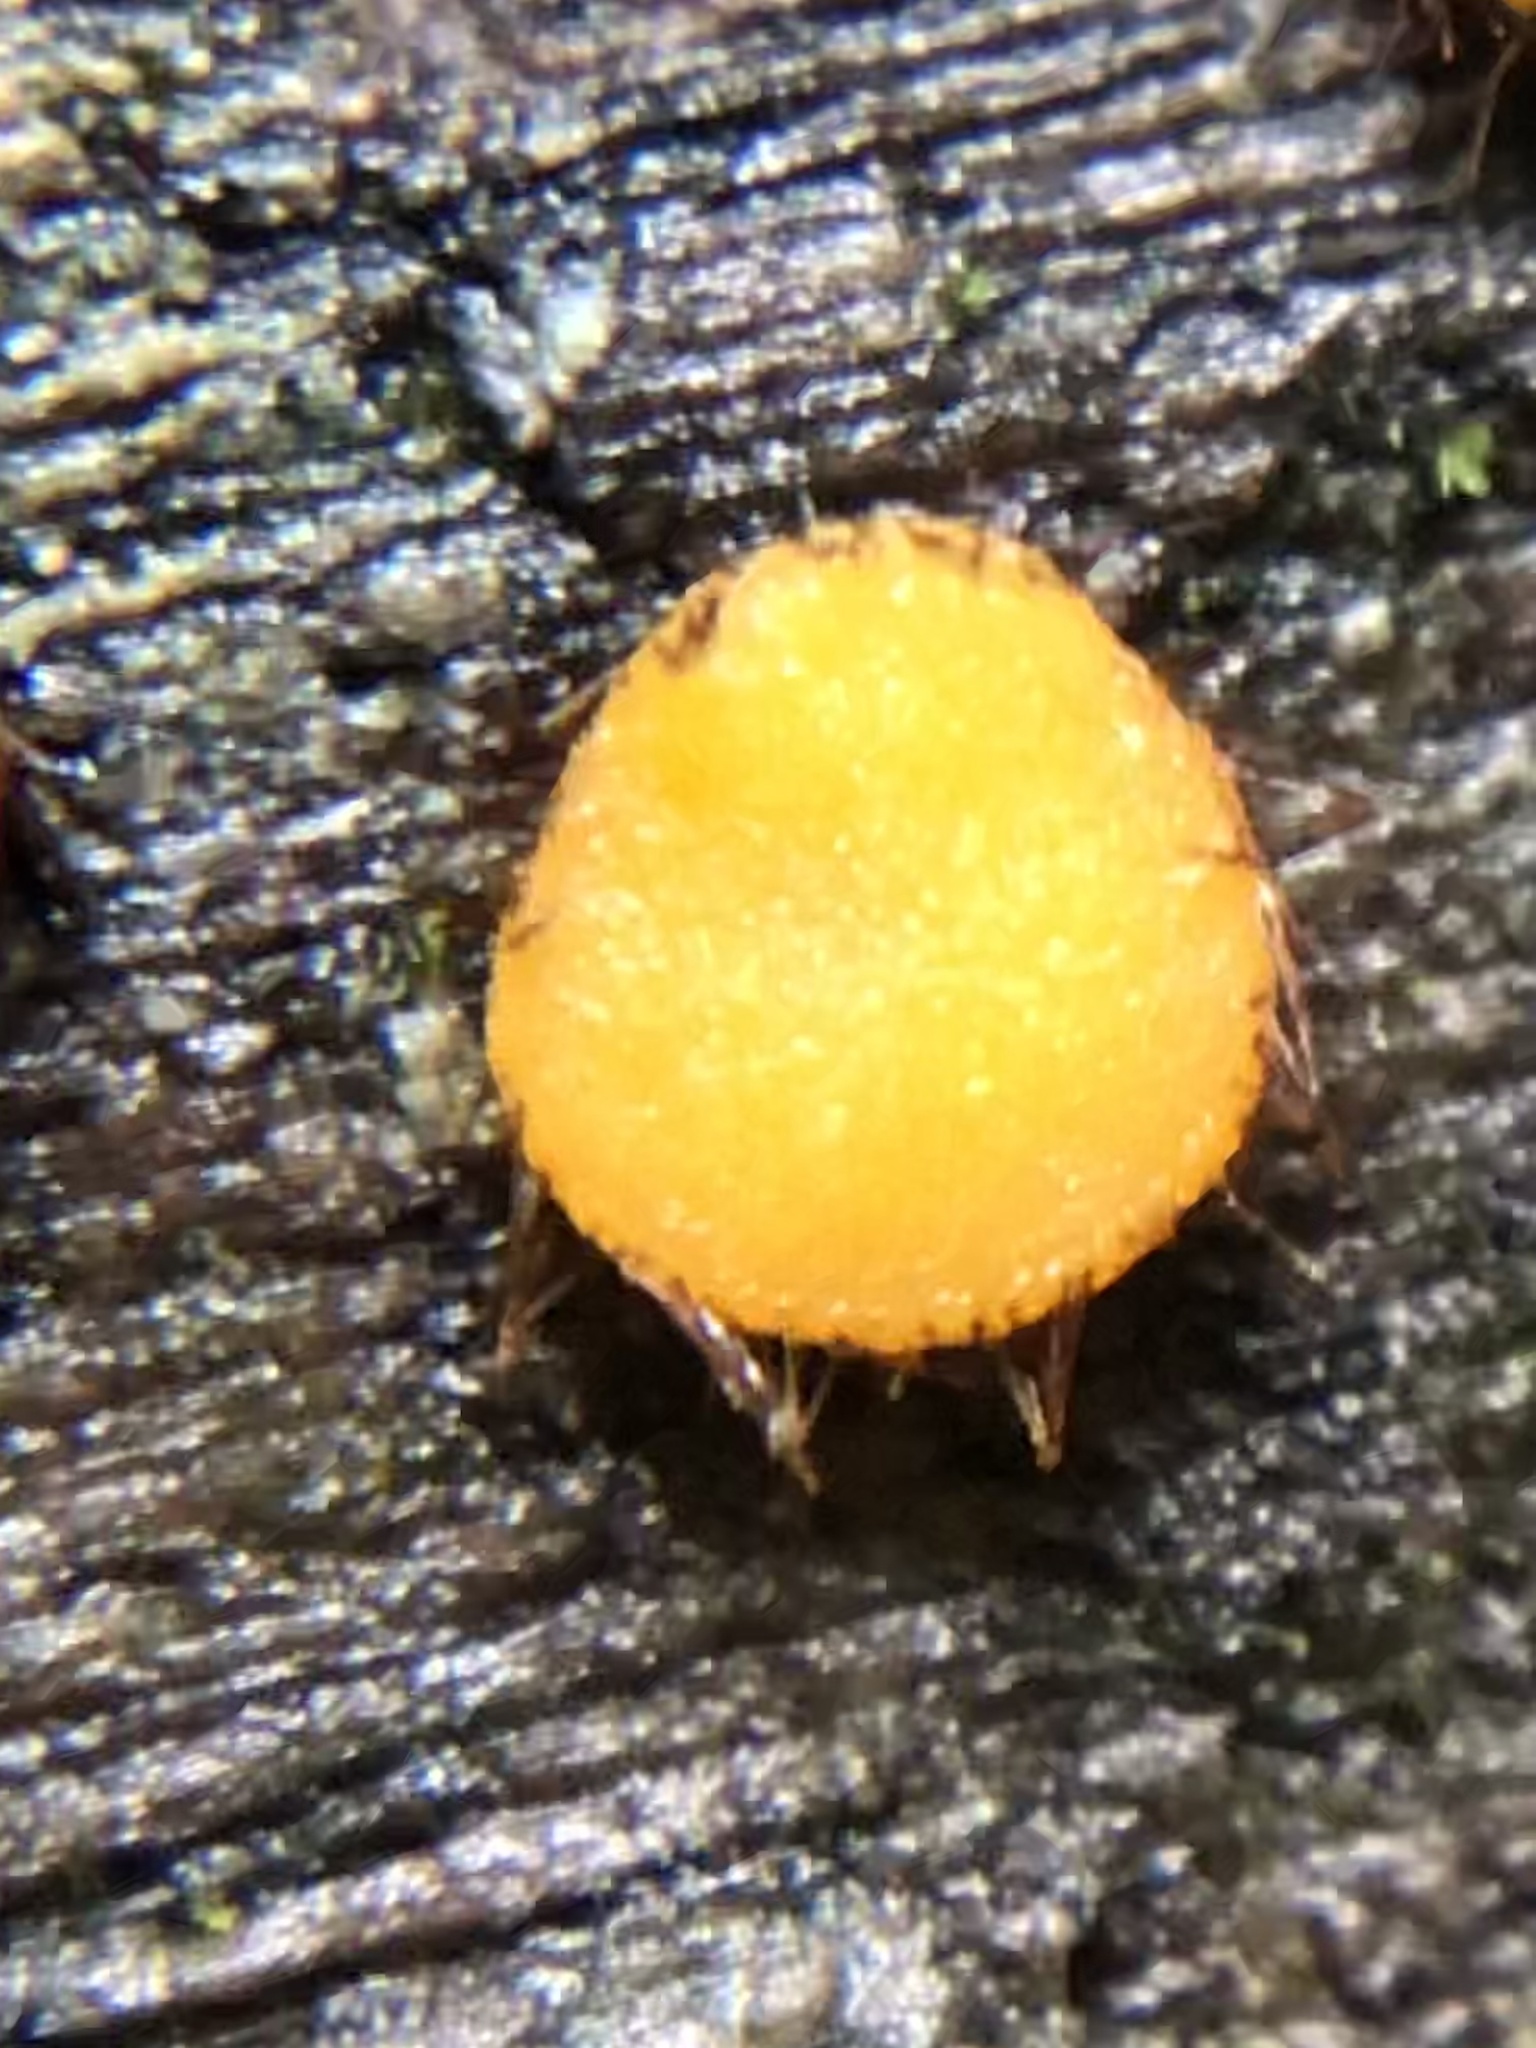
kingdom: Fungi
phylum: Ascomycota
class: Pezizomycetes
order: Pezizales
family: Pyronemataceae
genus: Scutellinia
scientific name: Scutellinia
